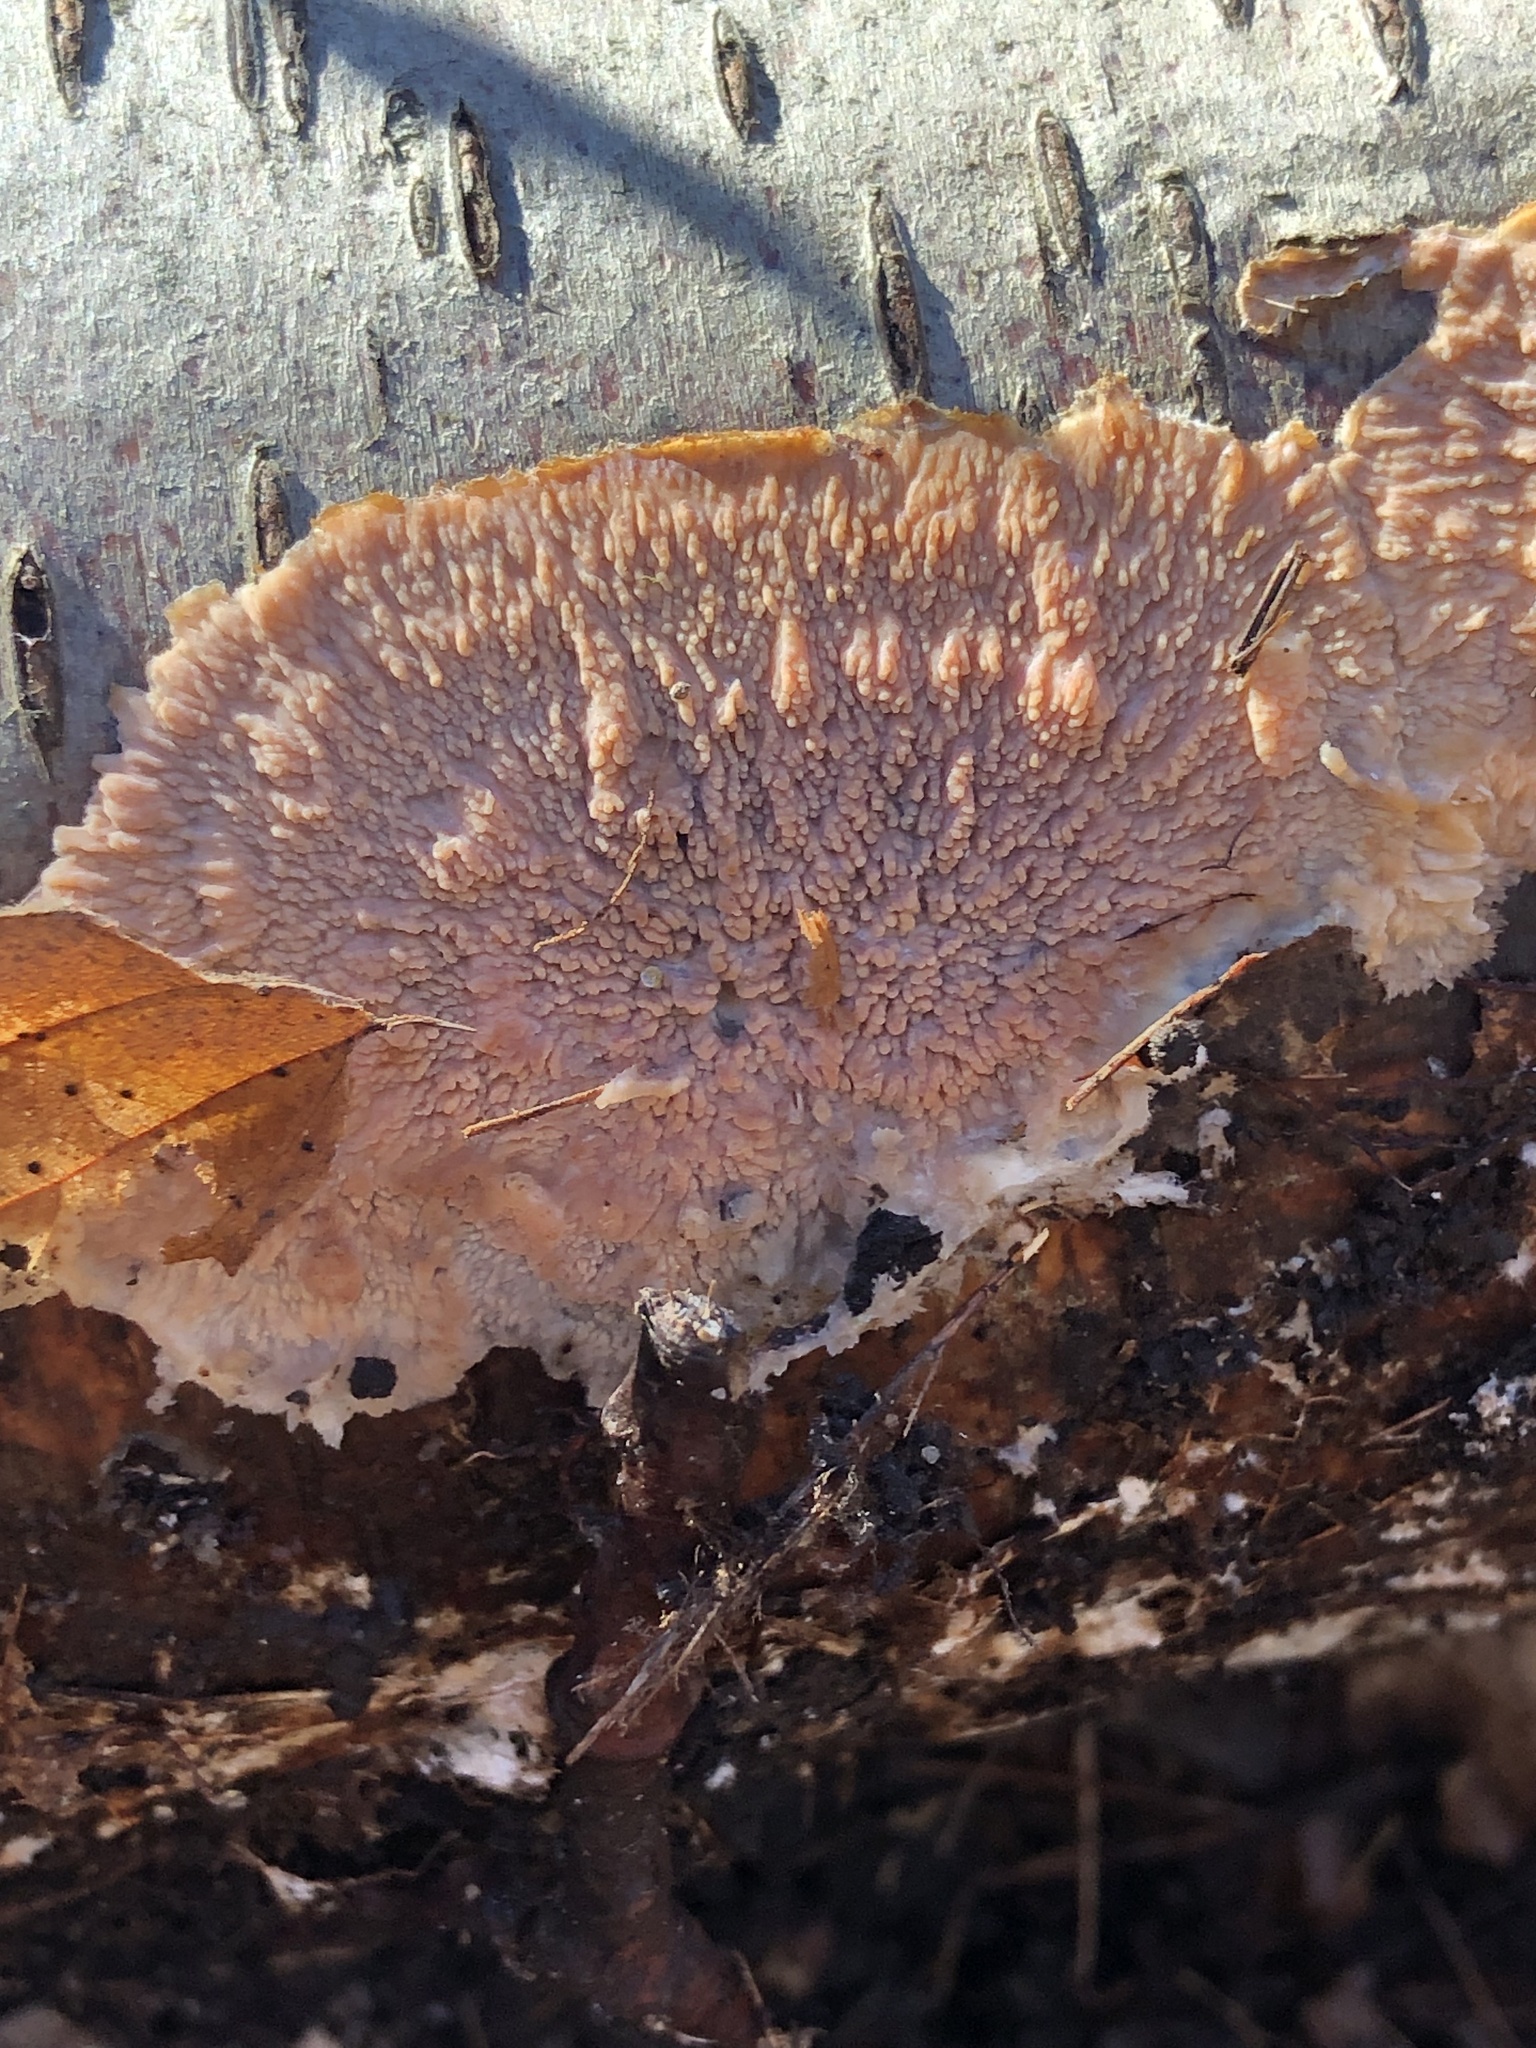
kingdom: Fungi
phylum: Basidiomycota
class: Agaricomycetes
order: Polyporales
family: Meruliaceae
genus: Phlebia
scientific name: Phlebia radiata
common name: Wrinkled crust
